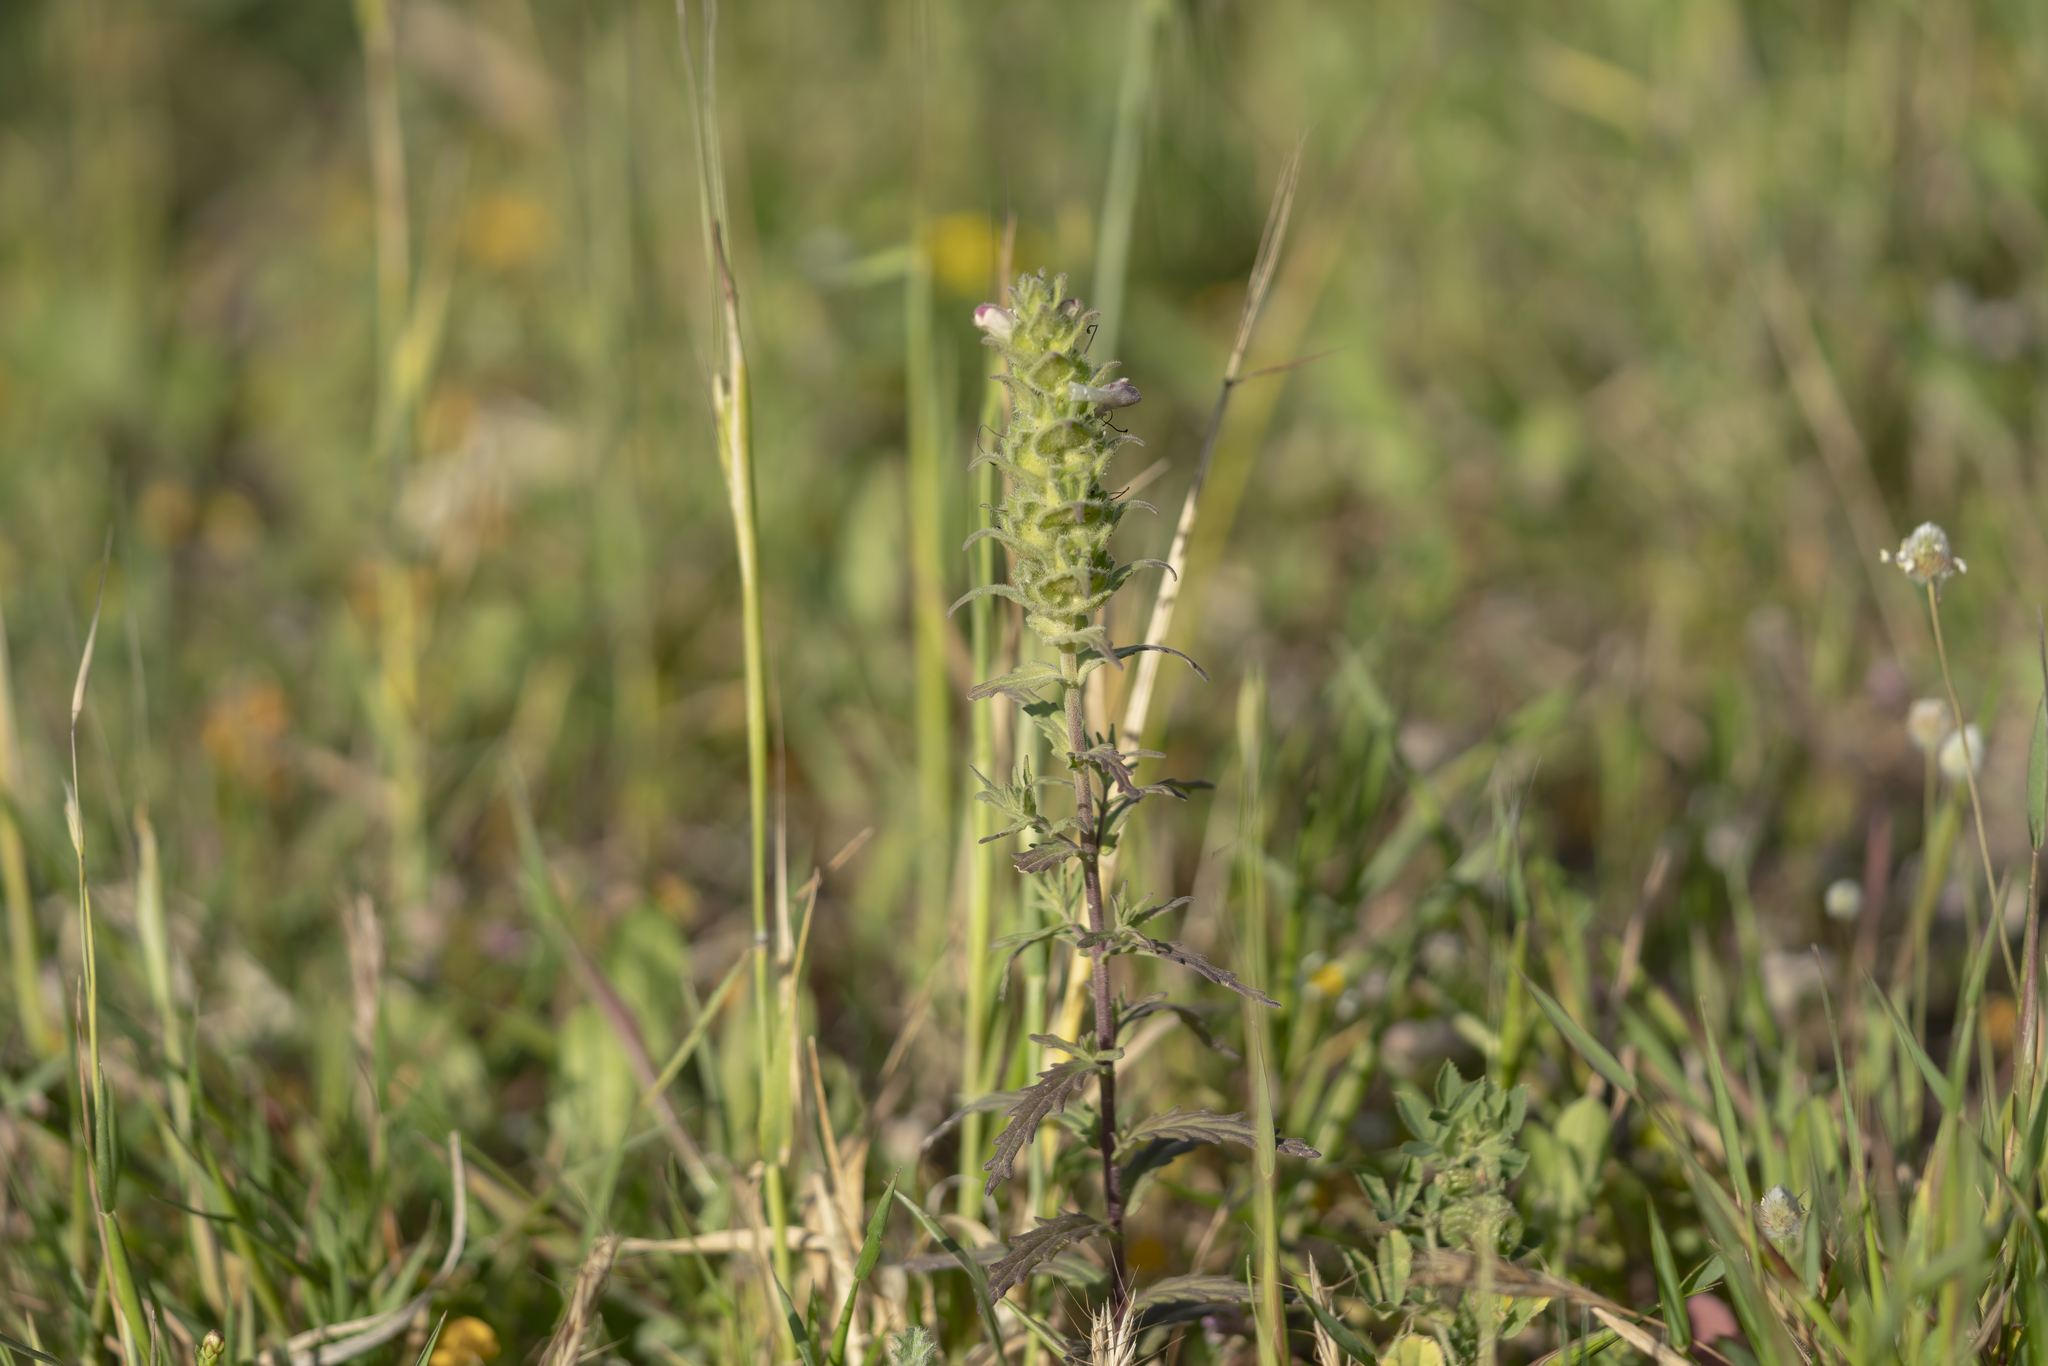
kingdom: Plantae
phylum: Tracheophyta
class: Magnoliopsida
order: Lamiales
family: Orobanchaceae
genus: Bellardia
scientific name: Bellardia trixago
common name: Mediterranean lineseed
